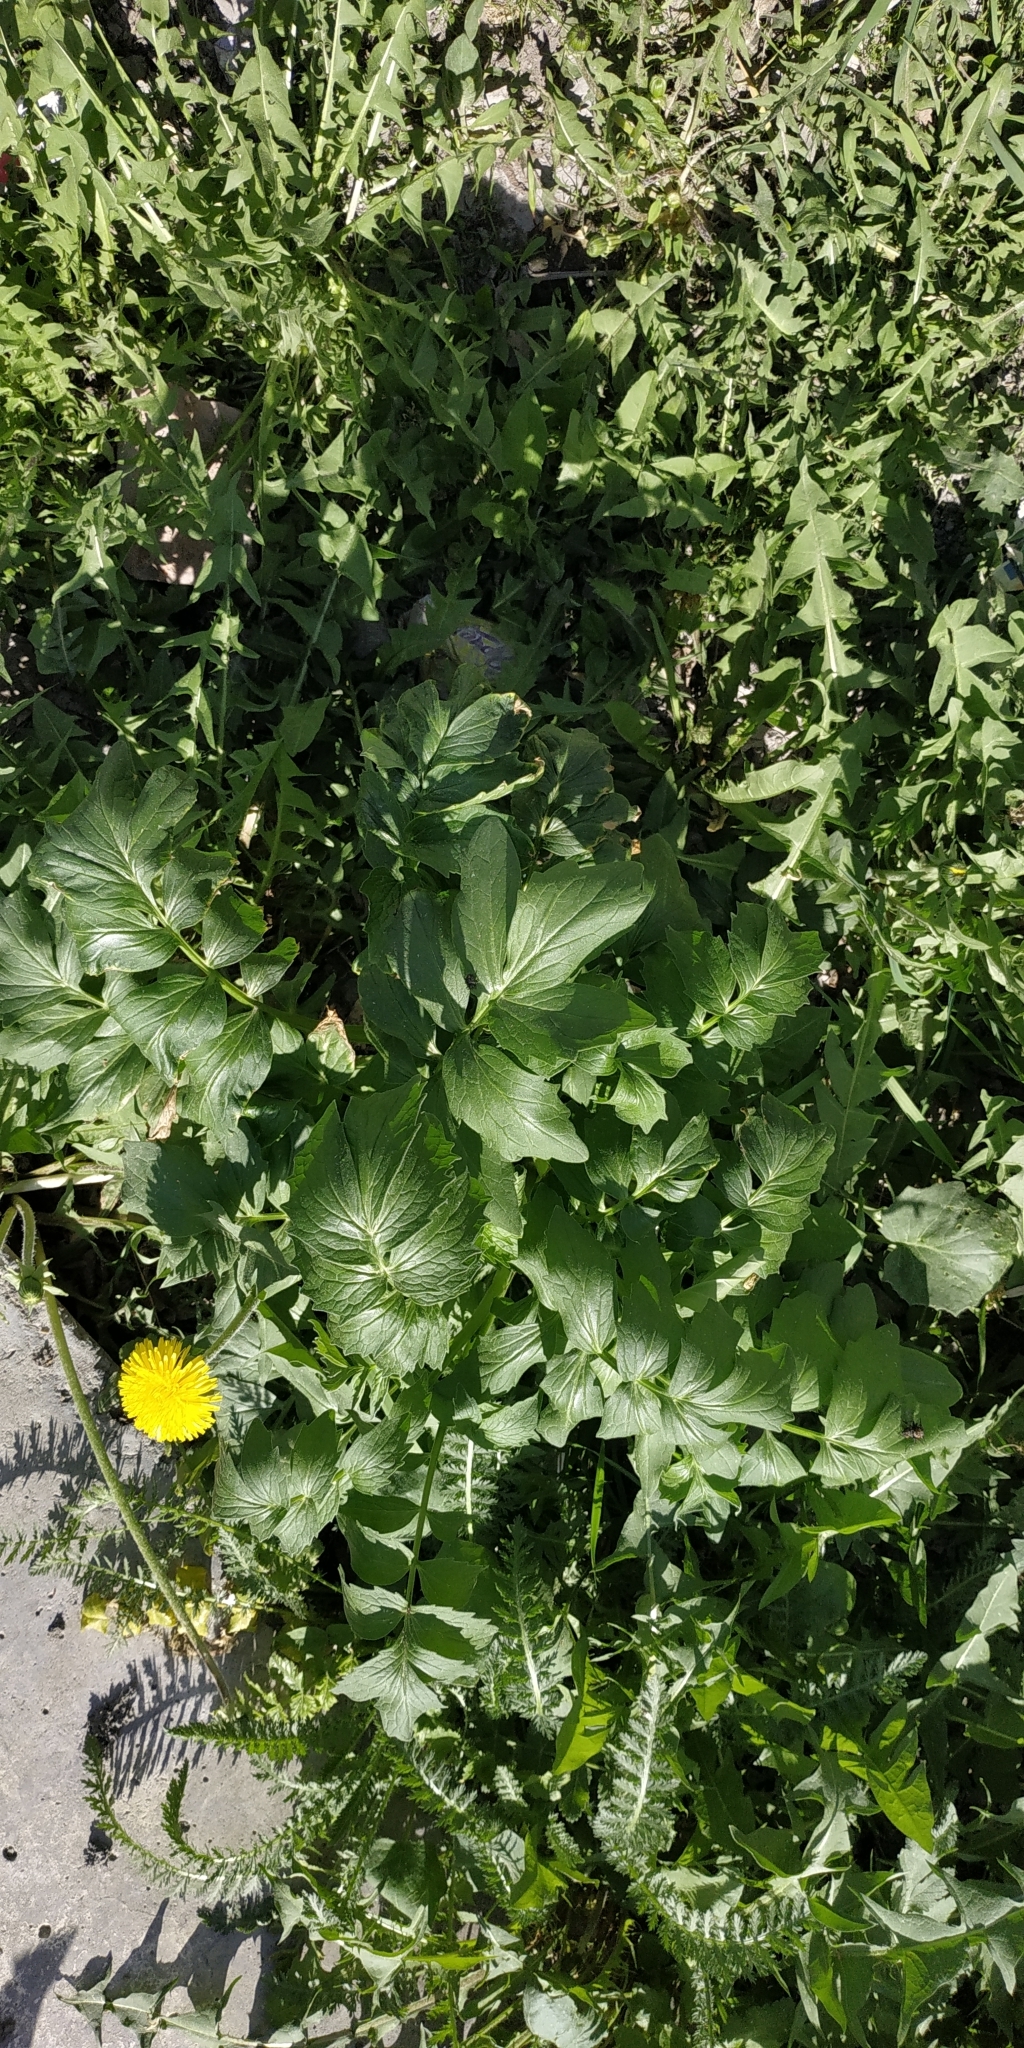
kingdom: Plantae
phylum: Tracheophyta
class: Magnoliopsida
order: Dipsacales
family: Caprifoliaceae
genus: Valeriana
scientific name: Valeriana wolgensis
